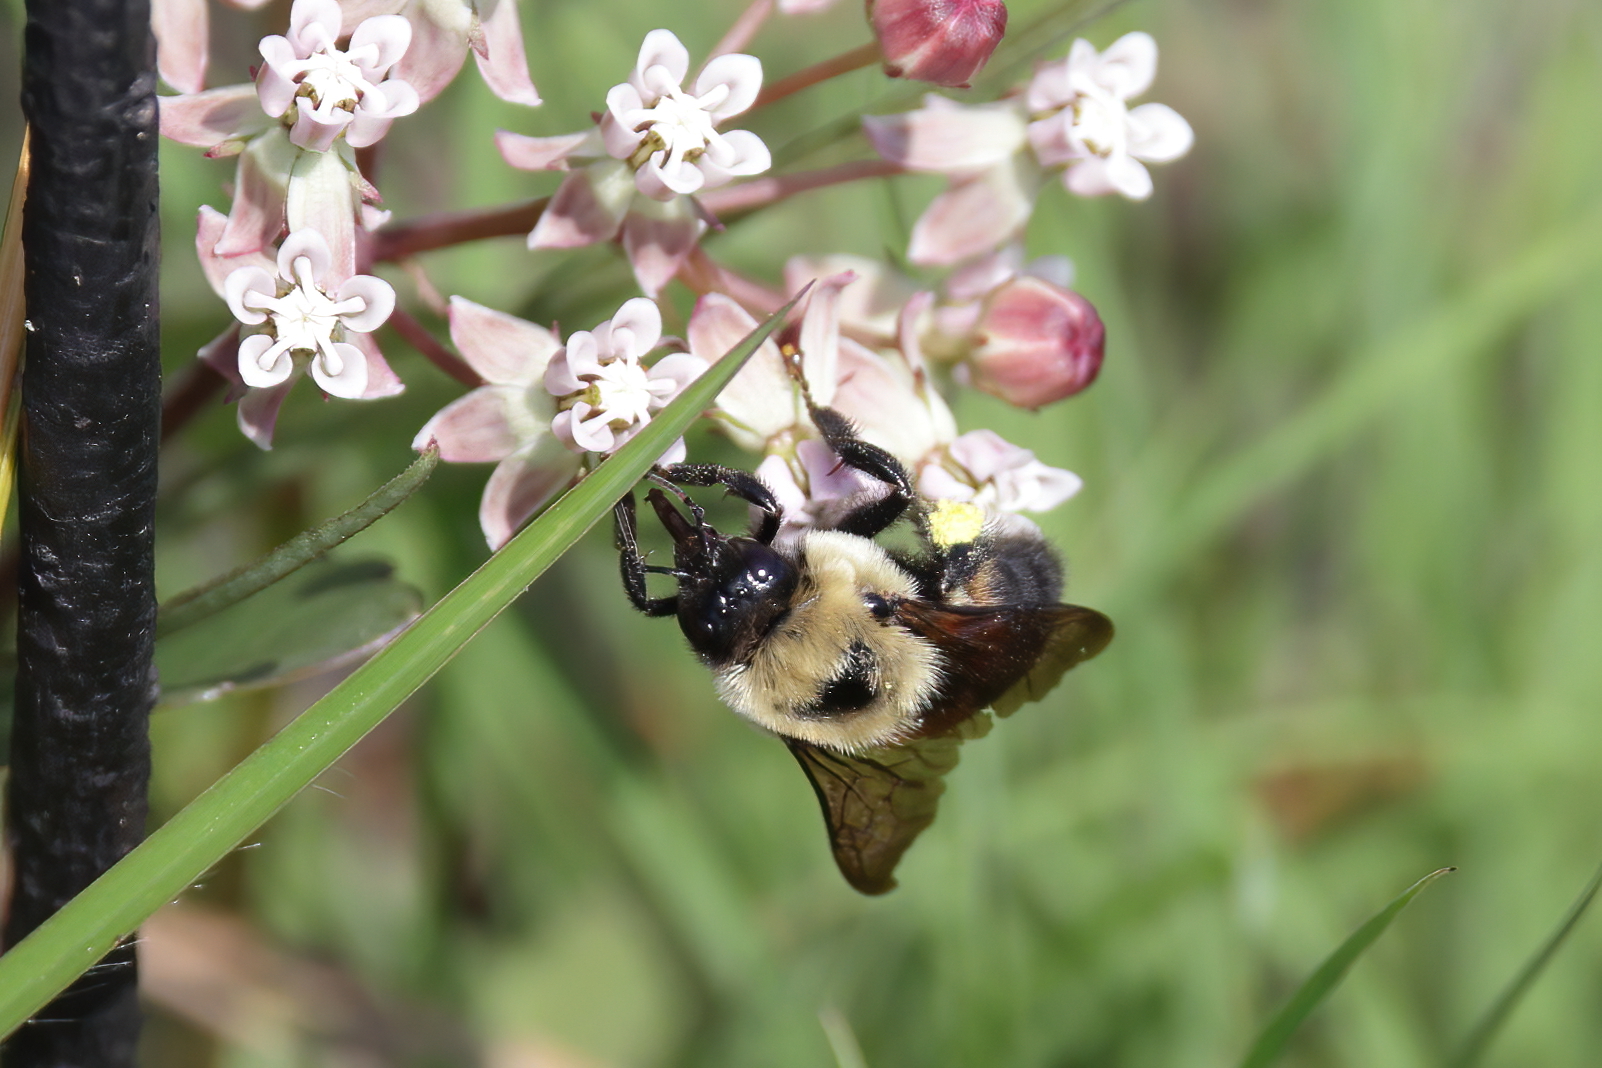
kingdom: Animalia
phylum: Arthropoda
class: Insecta
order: Hymenoptera
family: Apidae
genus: Bombus
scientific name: Bombus griseocollis
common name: Brown-belted bumble bee
